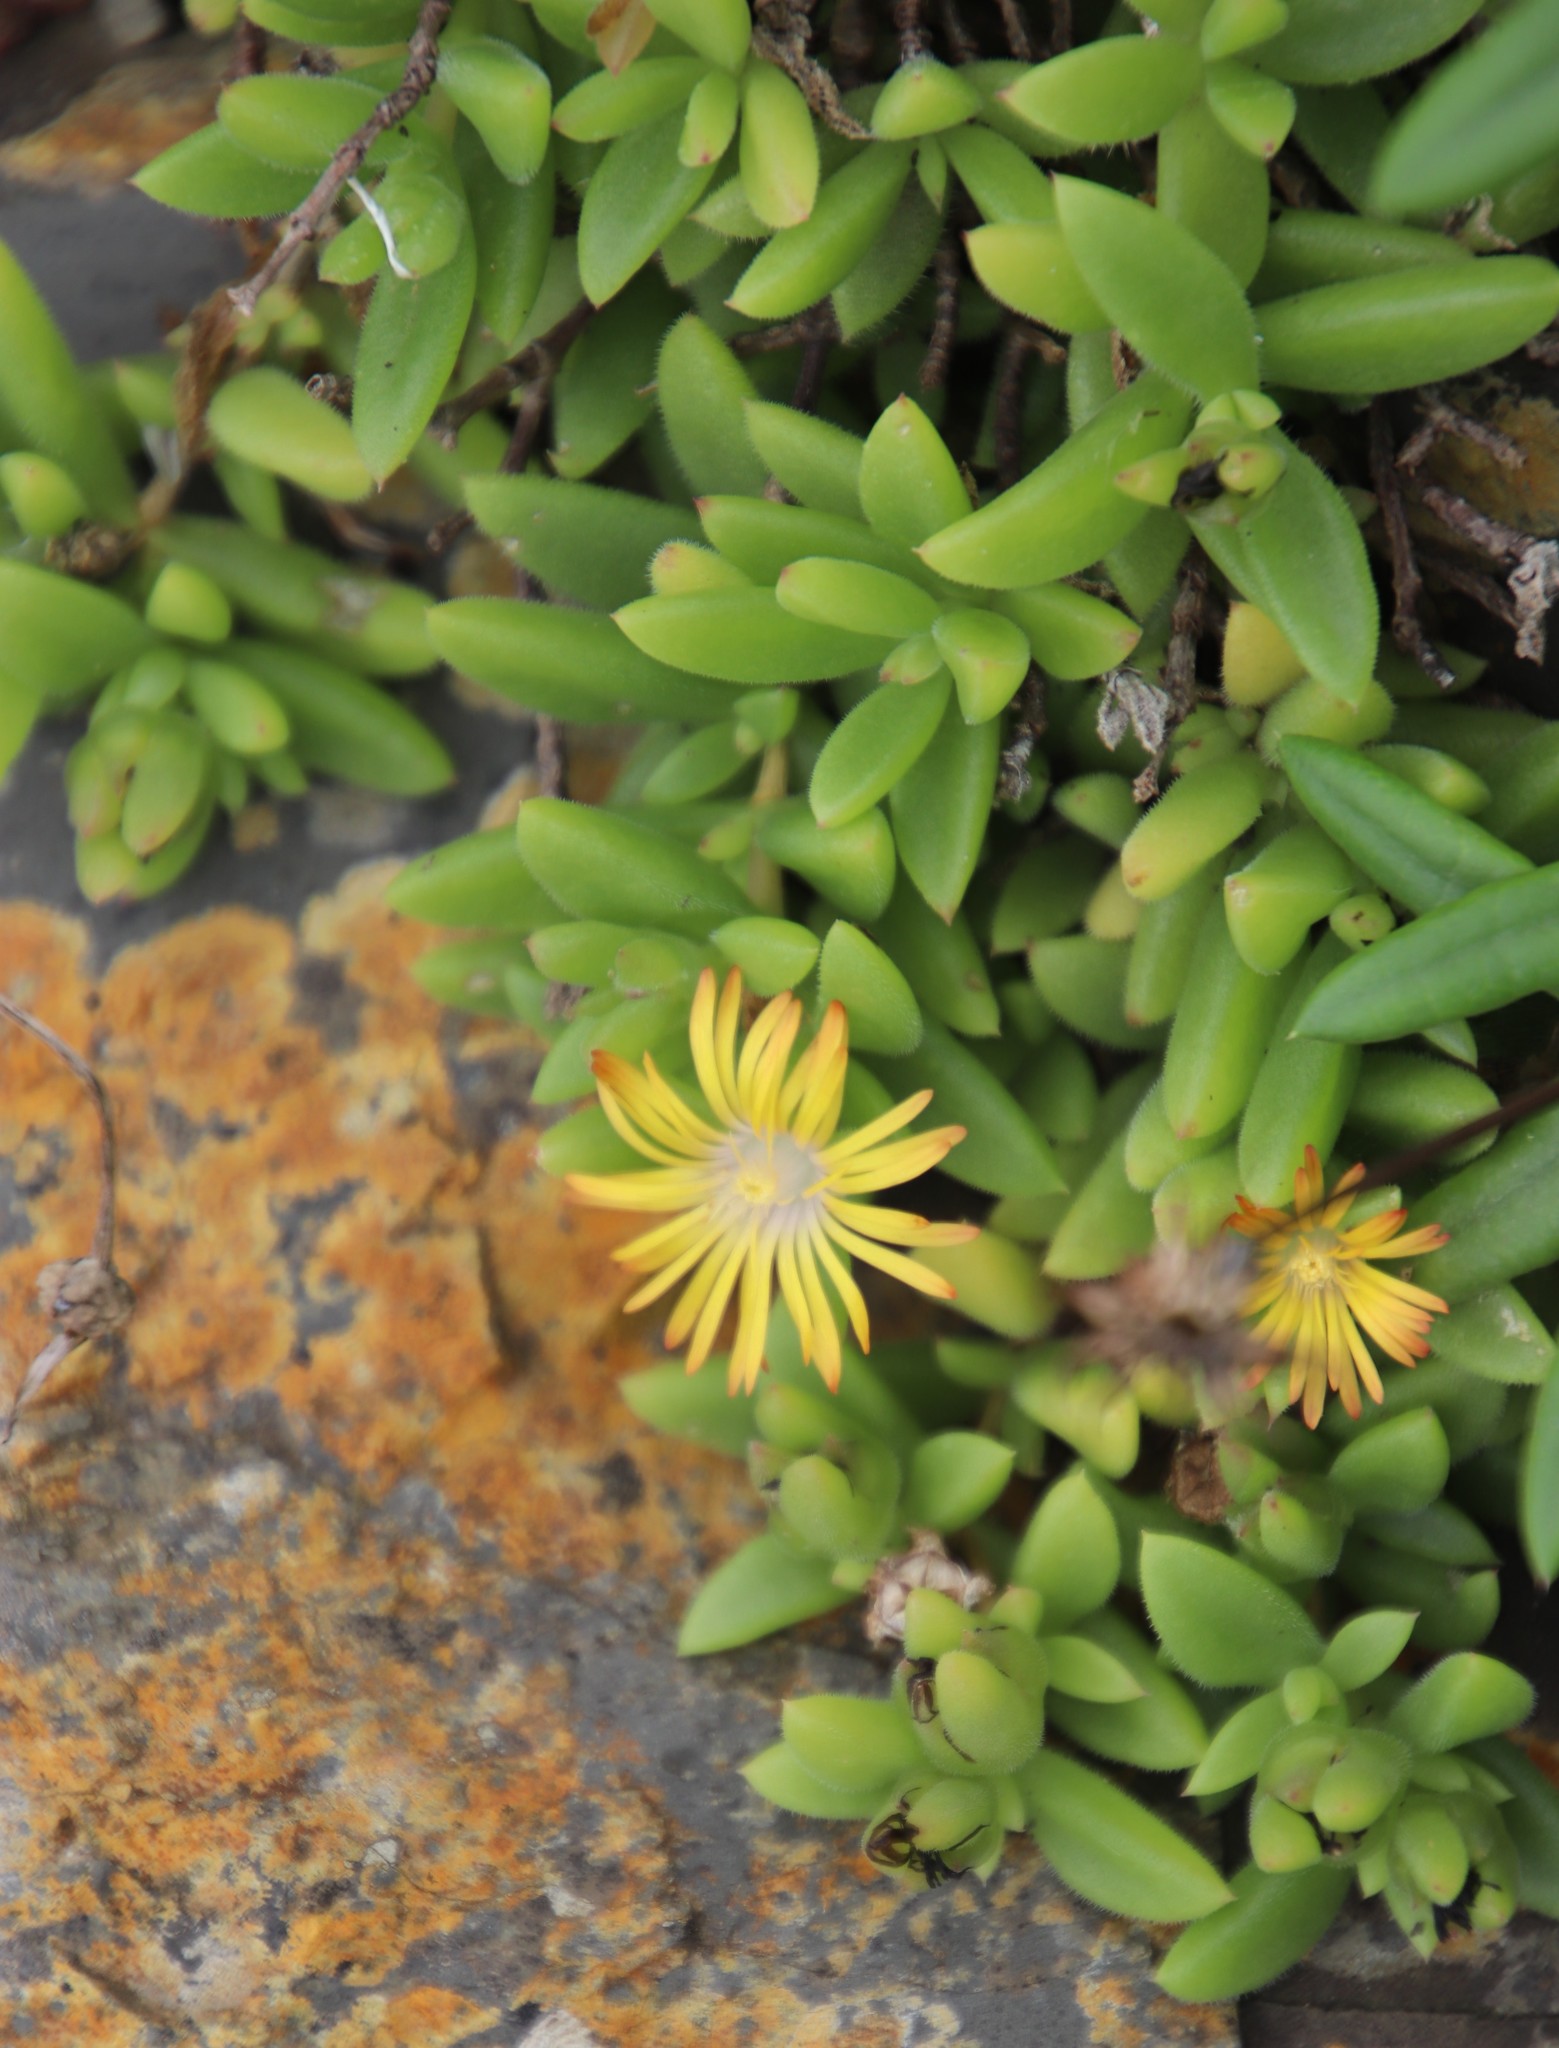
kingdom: Plantae
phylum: Tracheophyta
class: Magnoliopsida
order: Caryophyllales
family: Aizoaceae
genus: Delosperma
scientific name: Delosperma stenandrum
